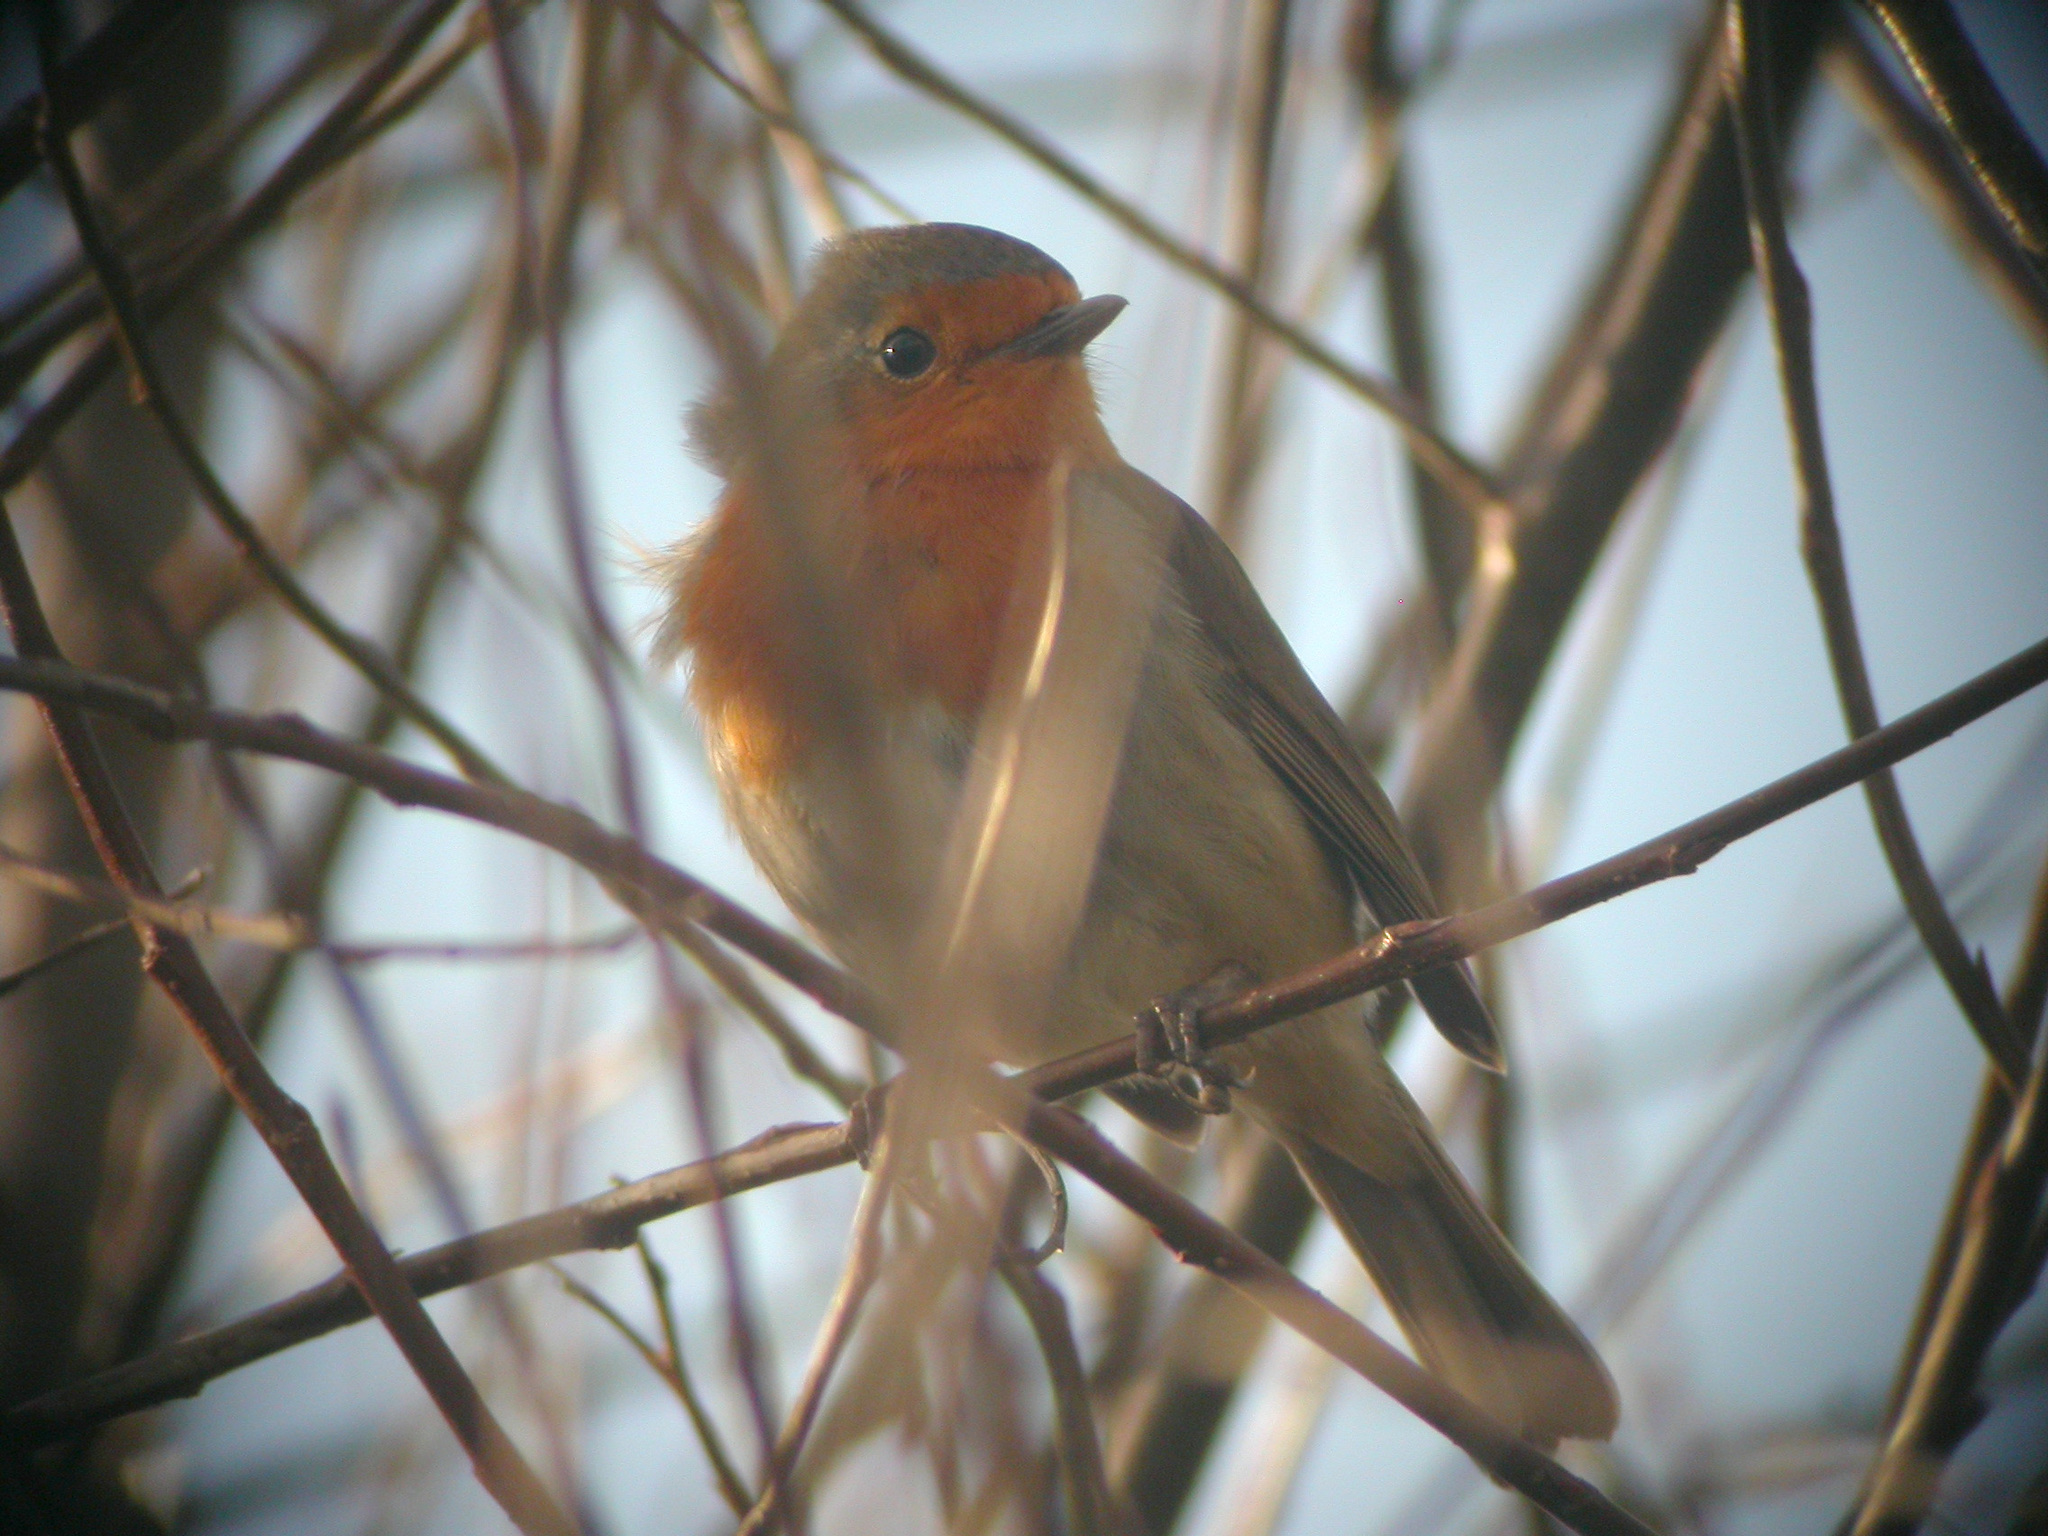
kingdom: Animalia
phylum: Chordata
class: Aves
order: Passeriformes
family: Muscicapidae
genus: Erithacus
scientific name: Erithacus rubecula
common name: European robin
